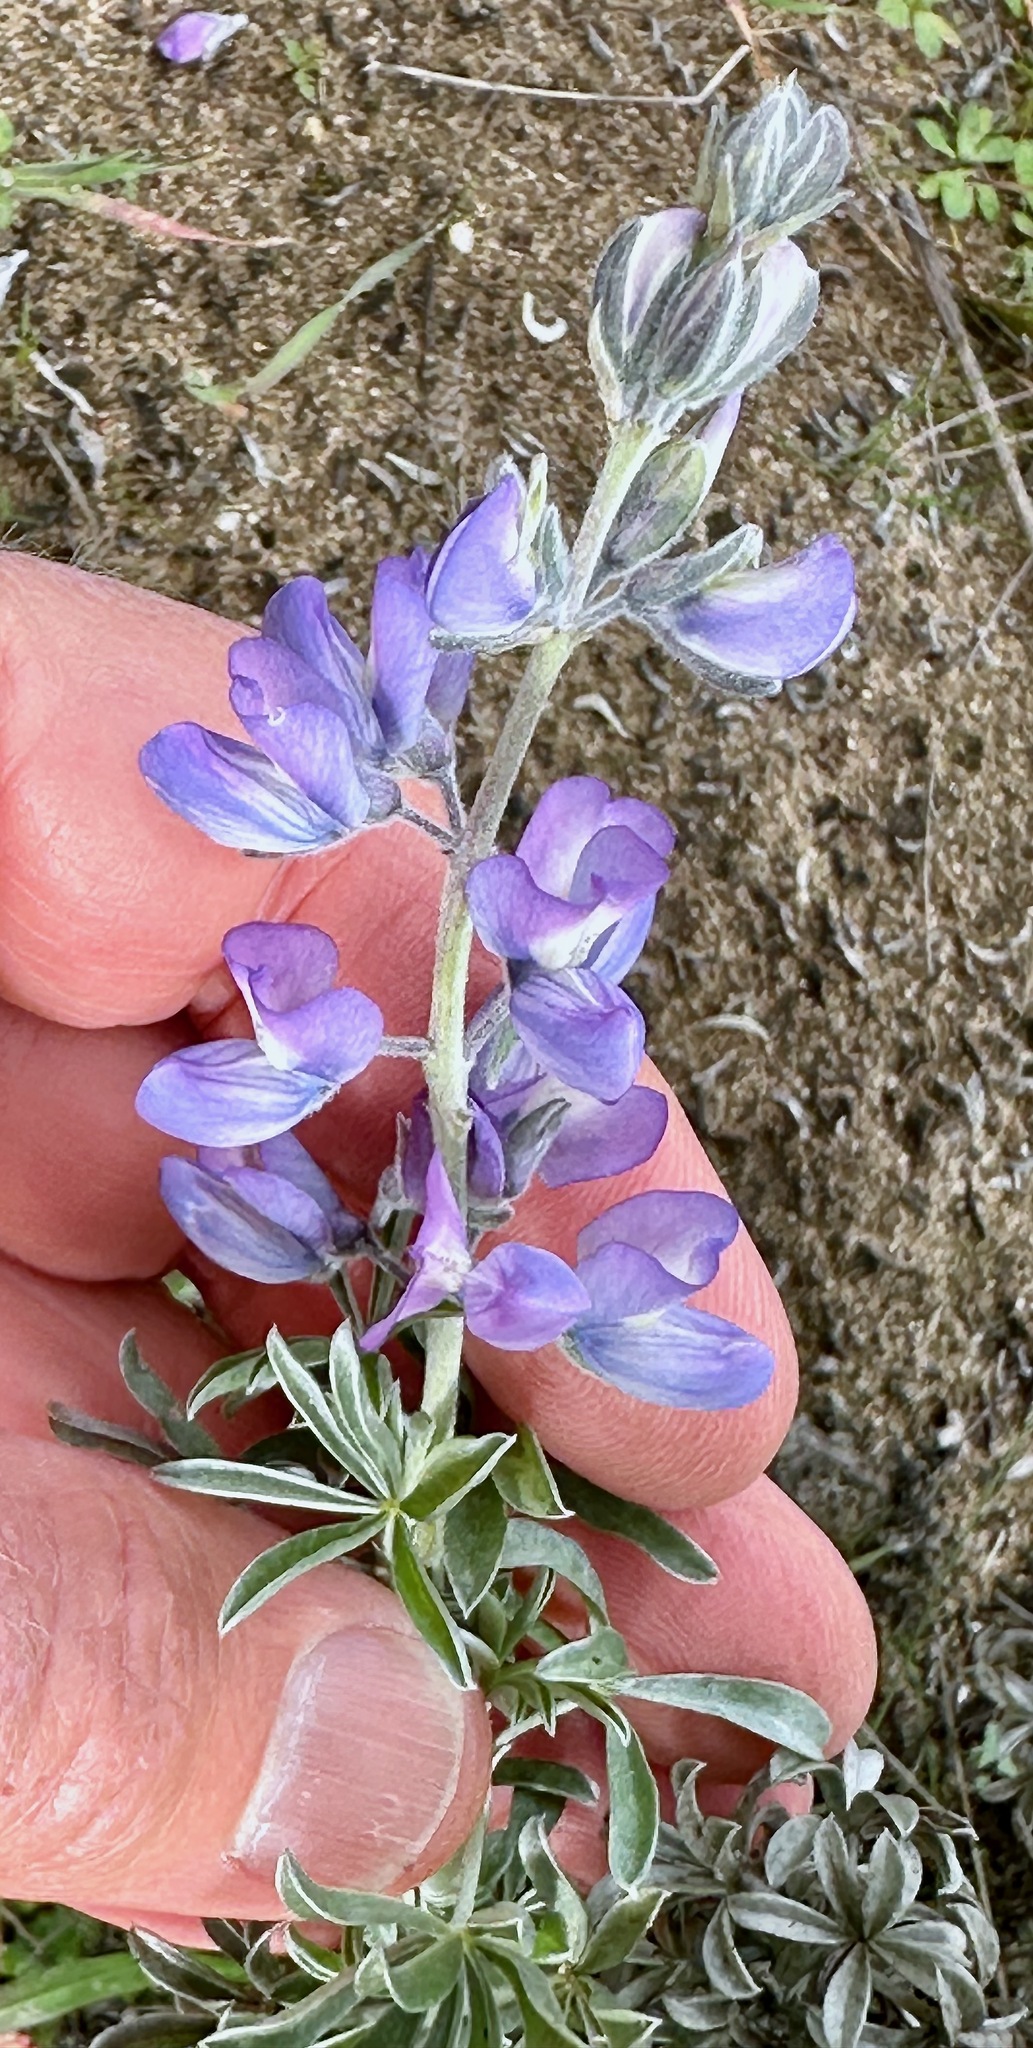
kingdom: Plantae
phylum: Tracheophyta
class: Magnoliopsida
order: Fabales
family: Fabaceae
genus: Lupinus
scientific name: Lupinus chamissonis
